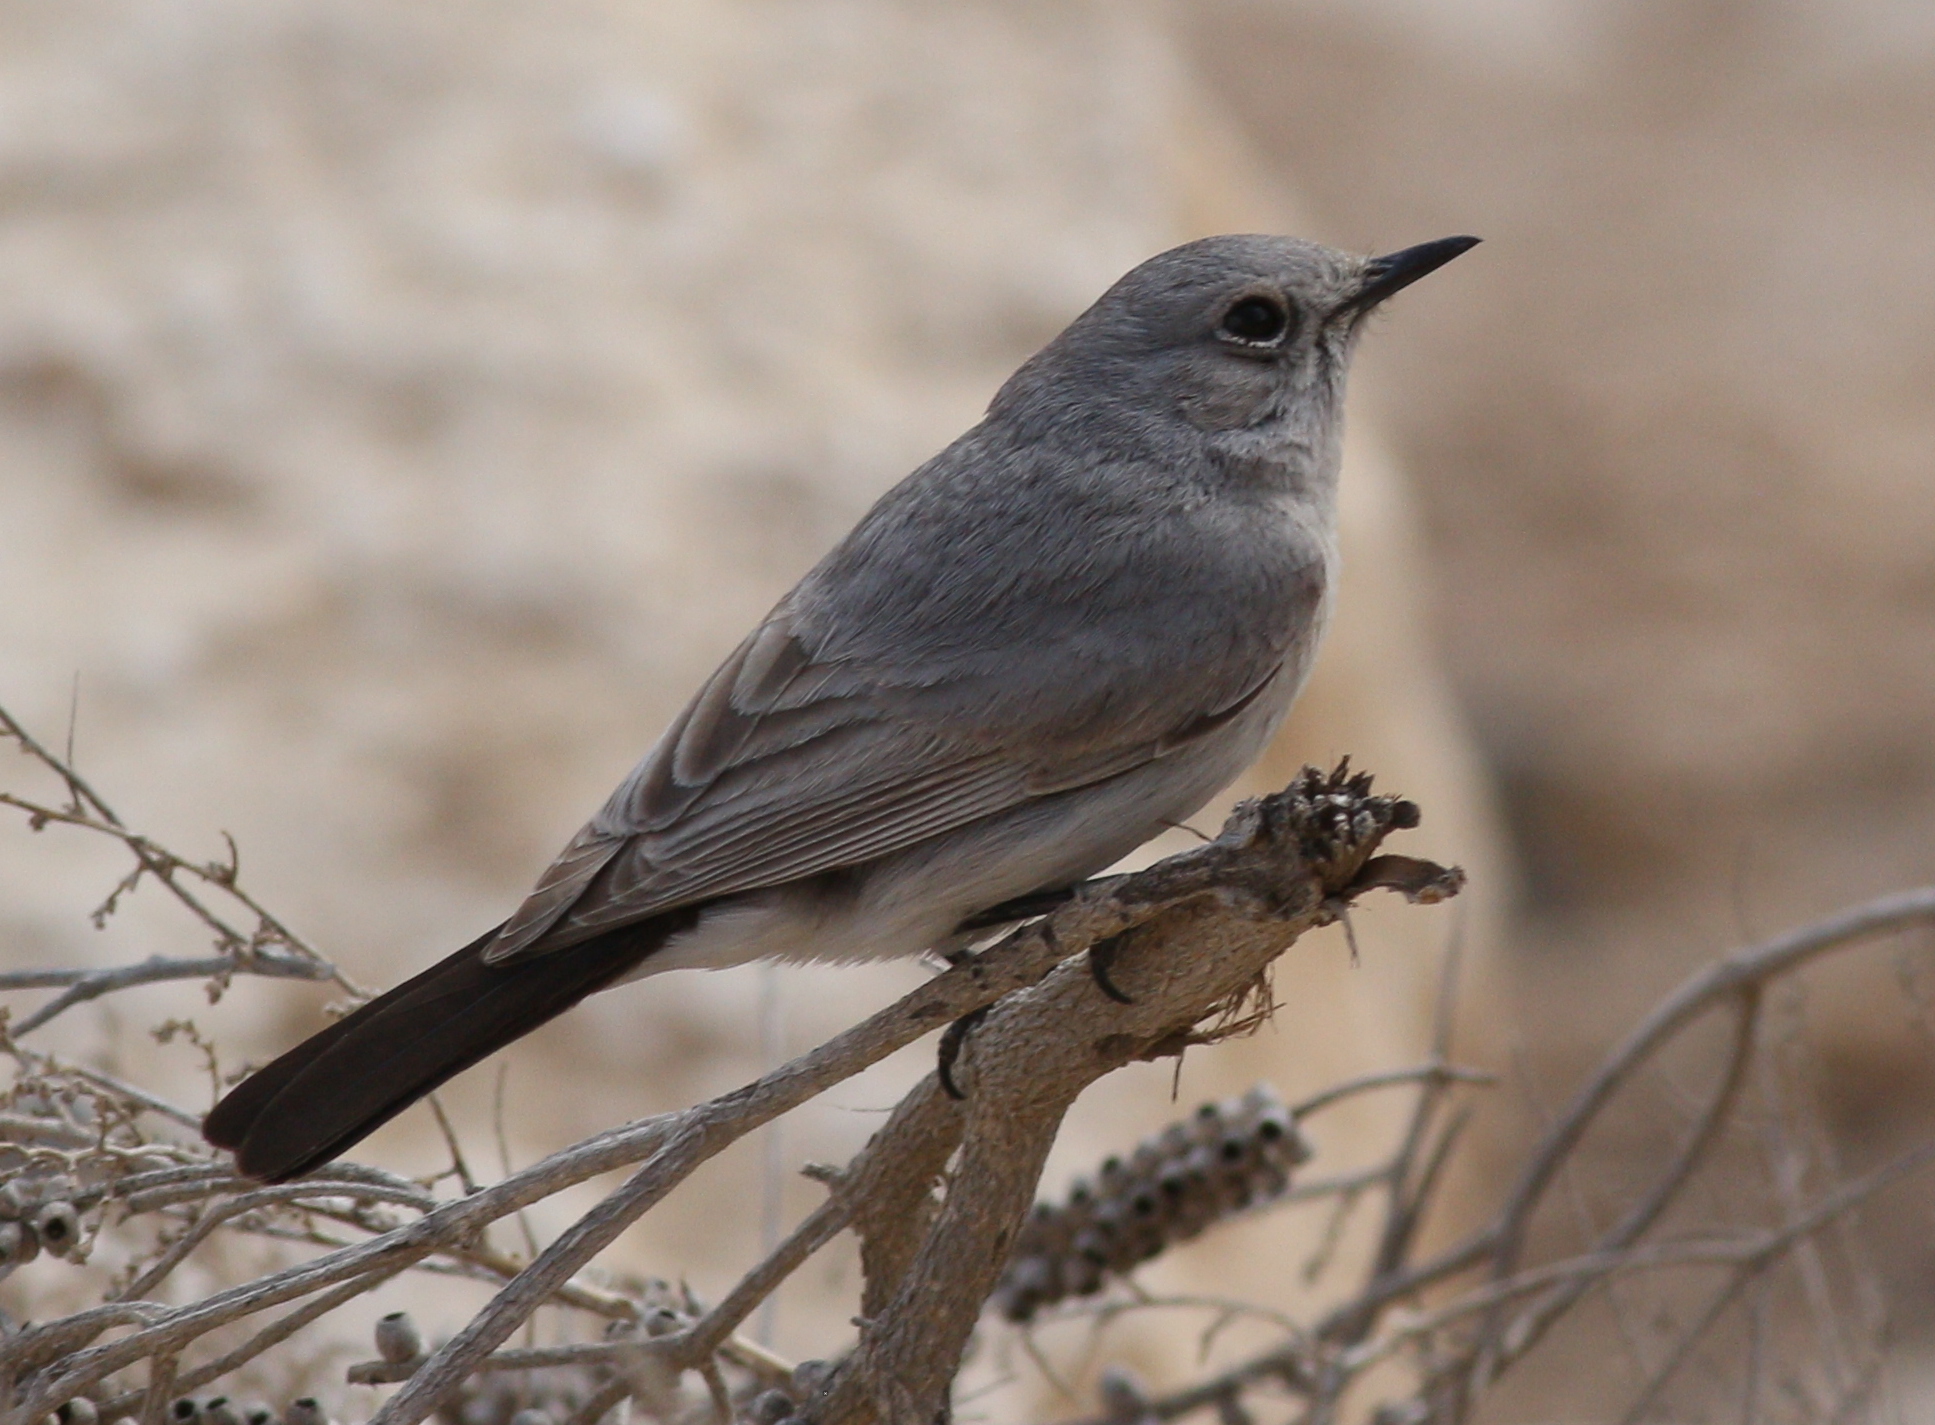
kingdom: Animalia
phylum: Chordata
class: Aves
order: Passeriformes
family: Muscicapidae
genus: Oenanthe
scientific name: Oenanthe melanura
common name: Blackstart
